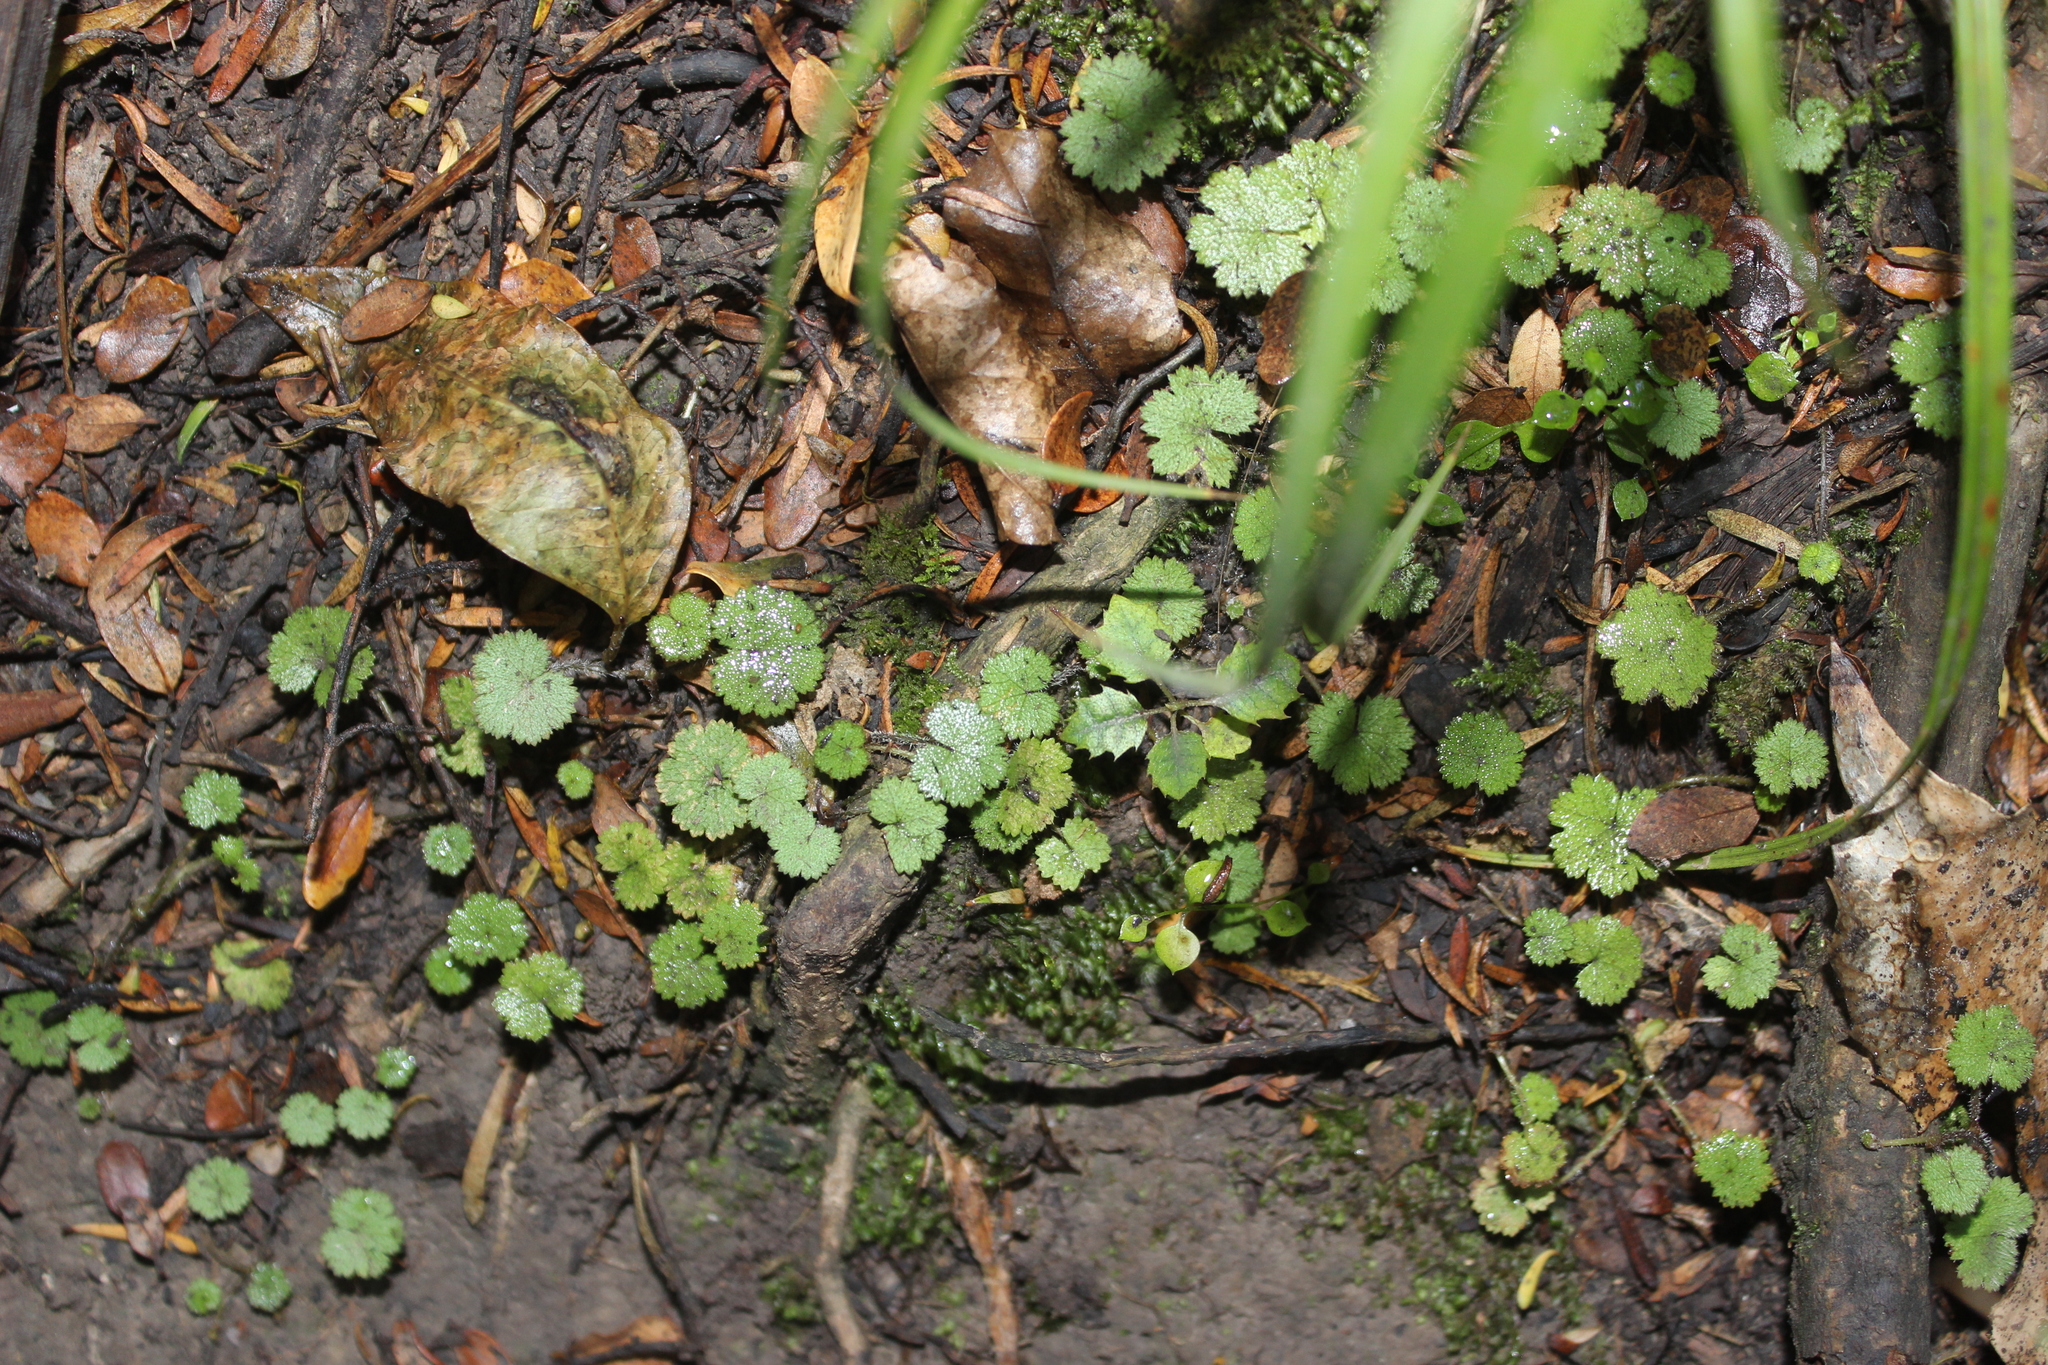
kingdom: Plantae
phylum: Tracheophyta
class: Magnoliopsida
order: Apiales
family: Araliaceae
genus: Hydrocotyle
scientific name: Hydrocotyle moschata
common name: Hairy pennywort
